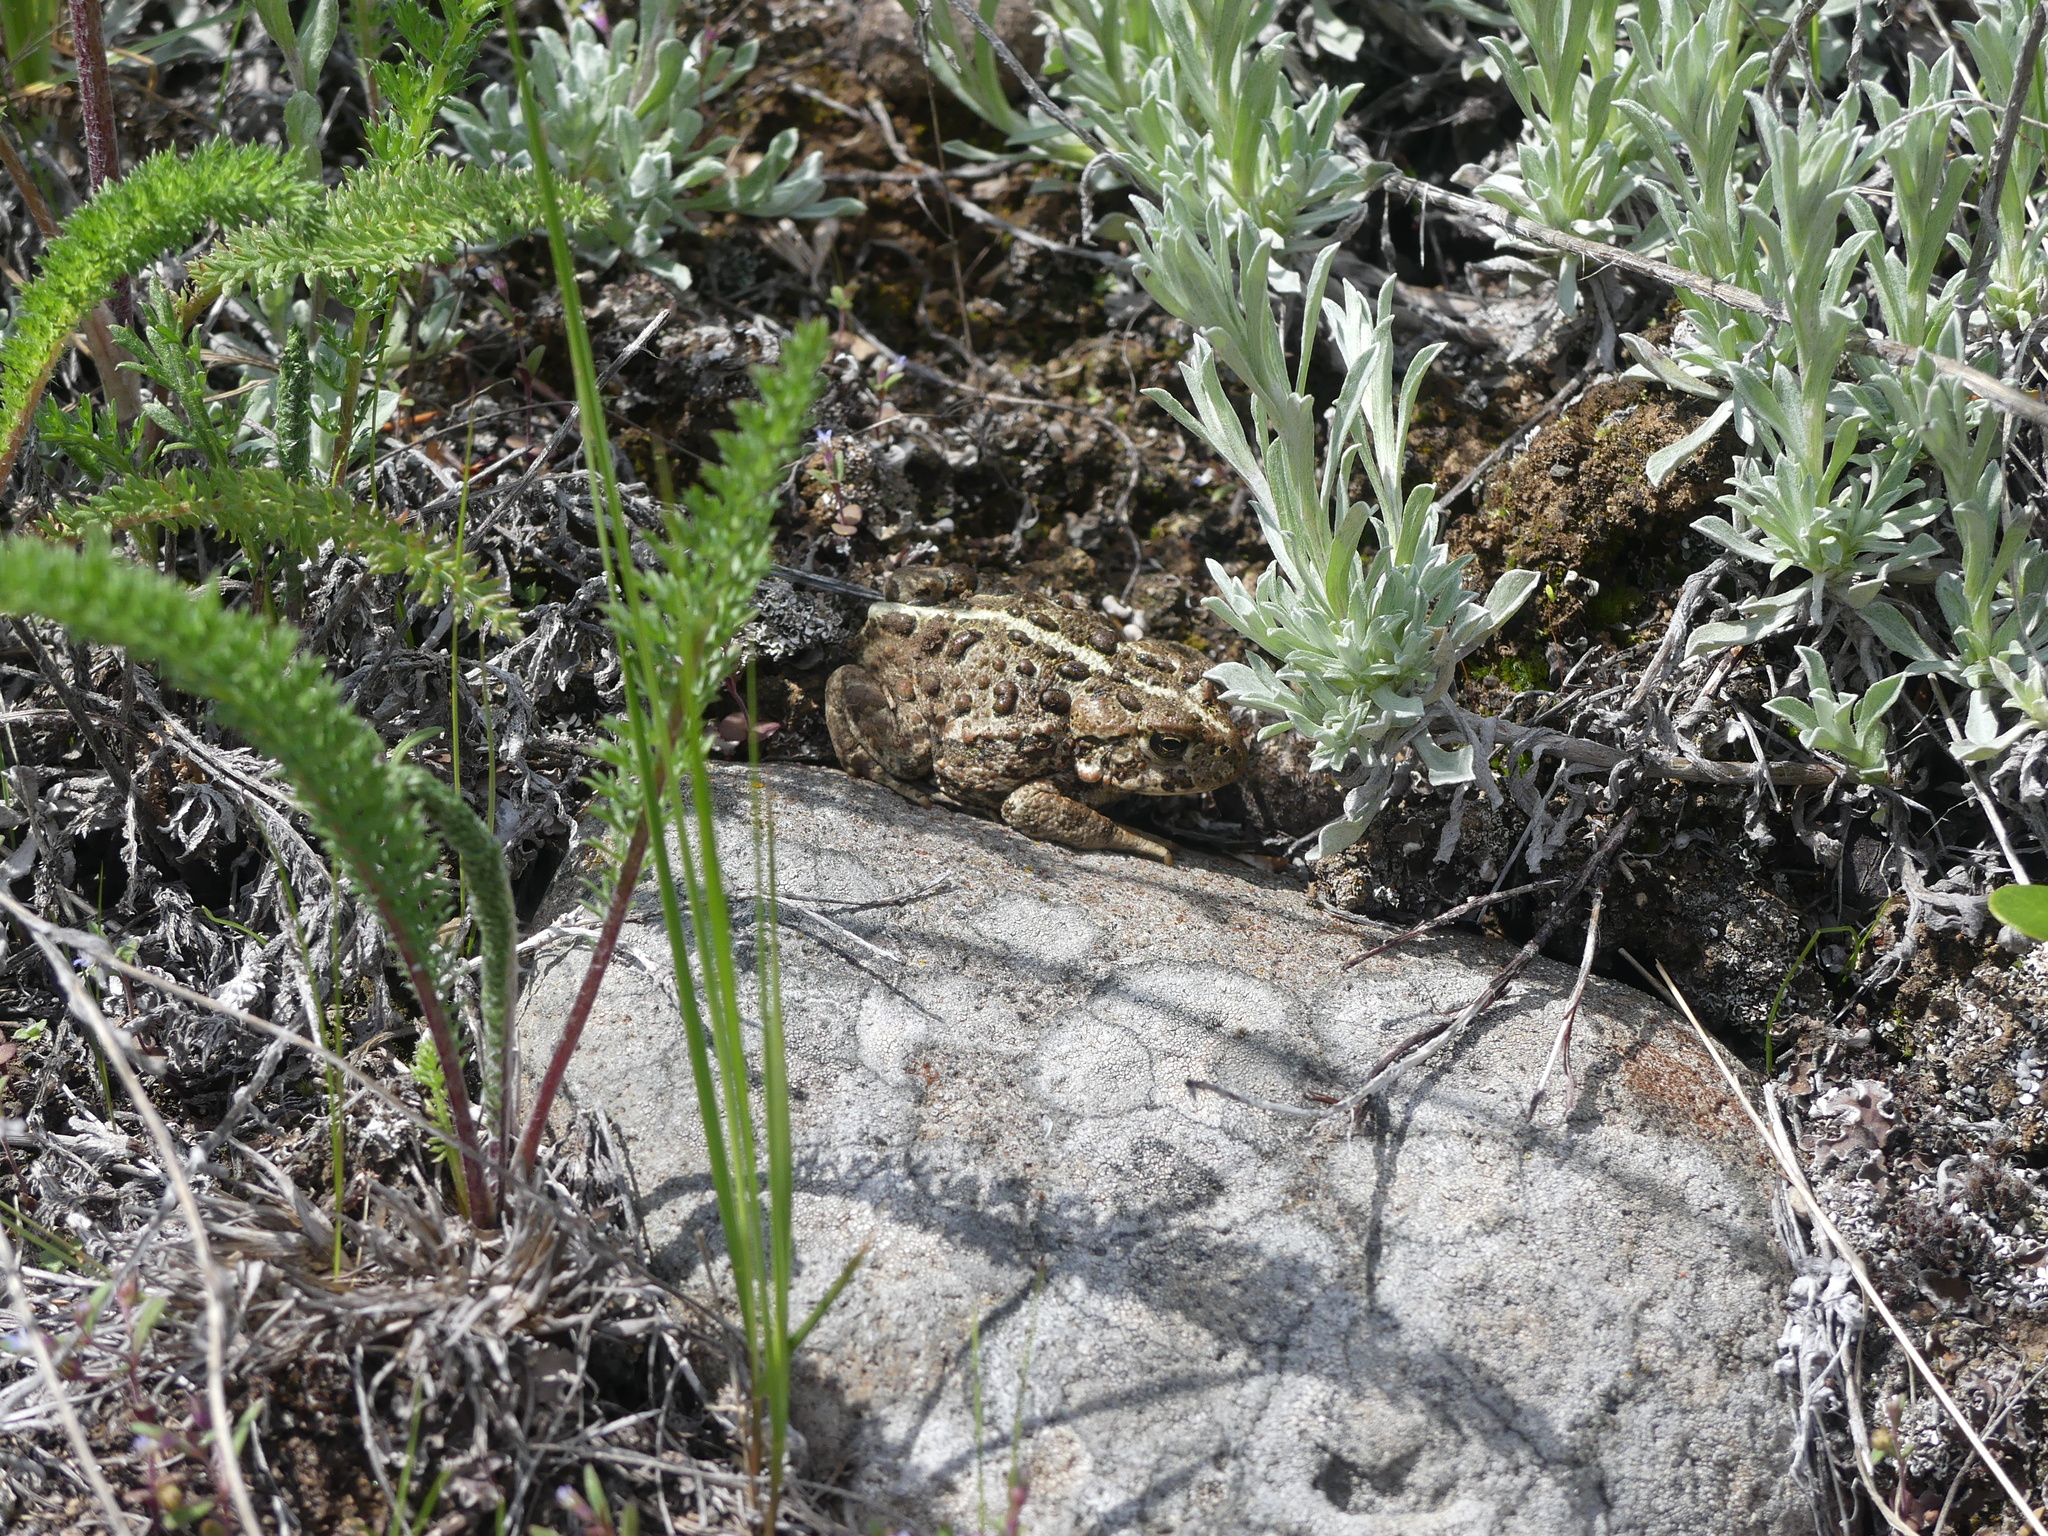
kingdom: Animalia
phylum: Chordata
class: Amphibia
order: Anura
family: Bufonidae
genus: Anaxyrus
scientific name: Anaxyrus boreas
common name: Western toad
